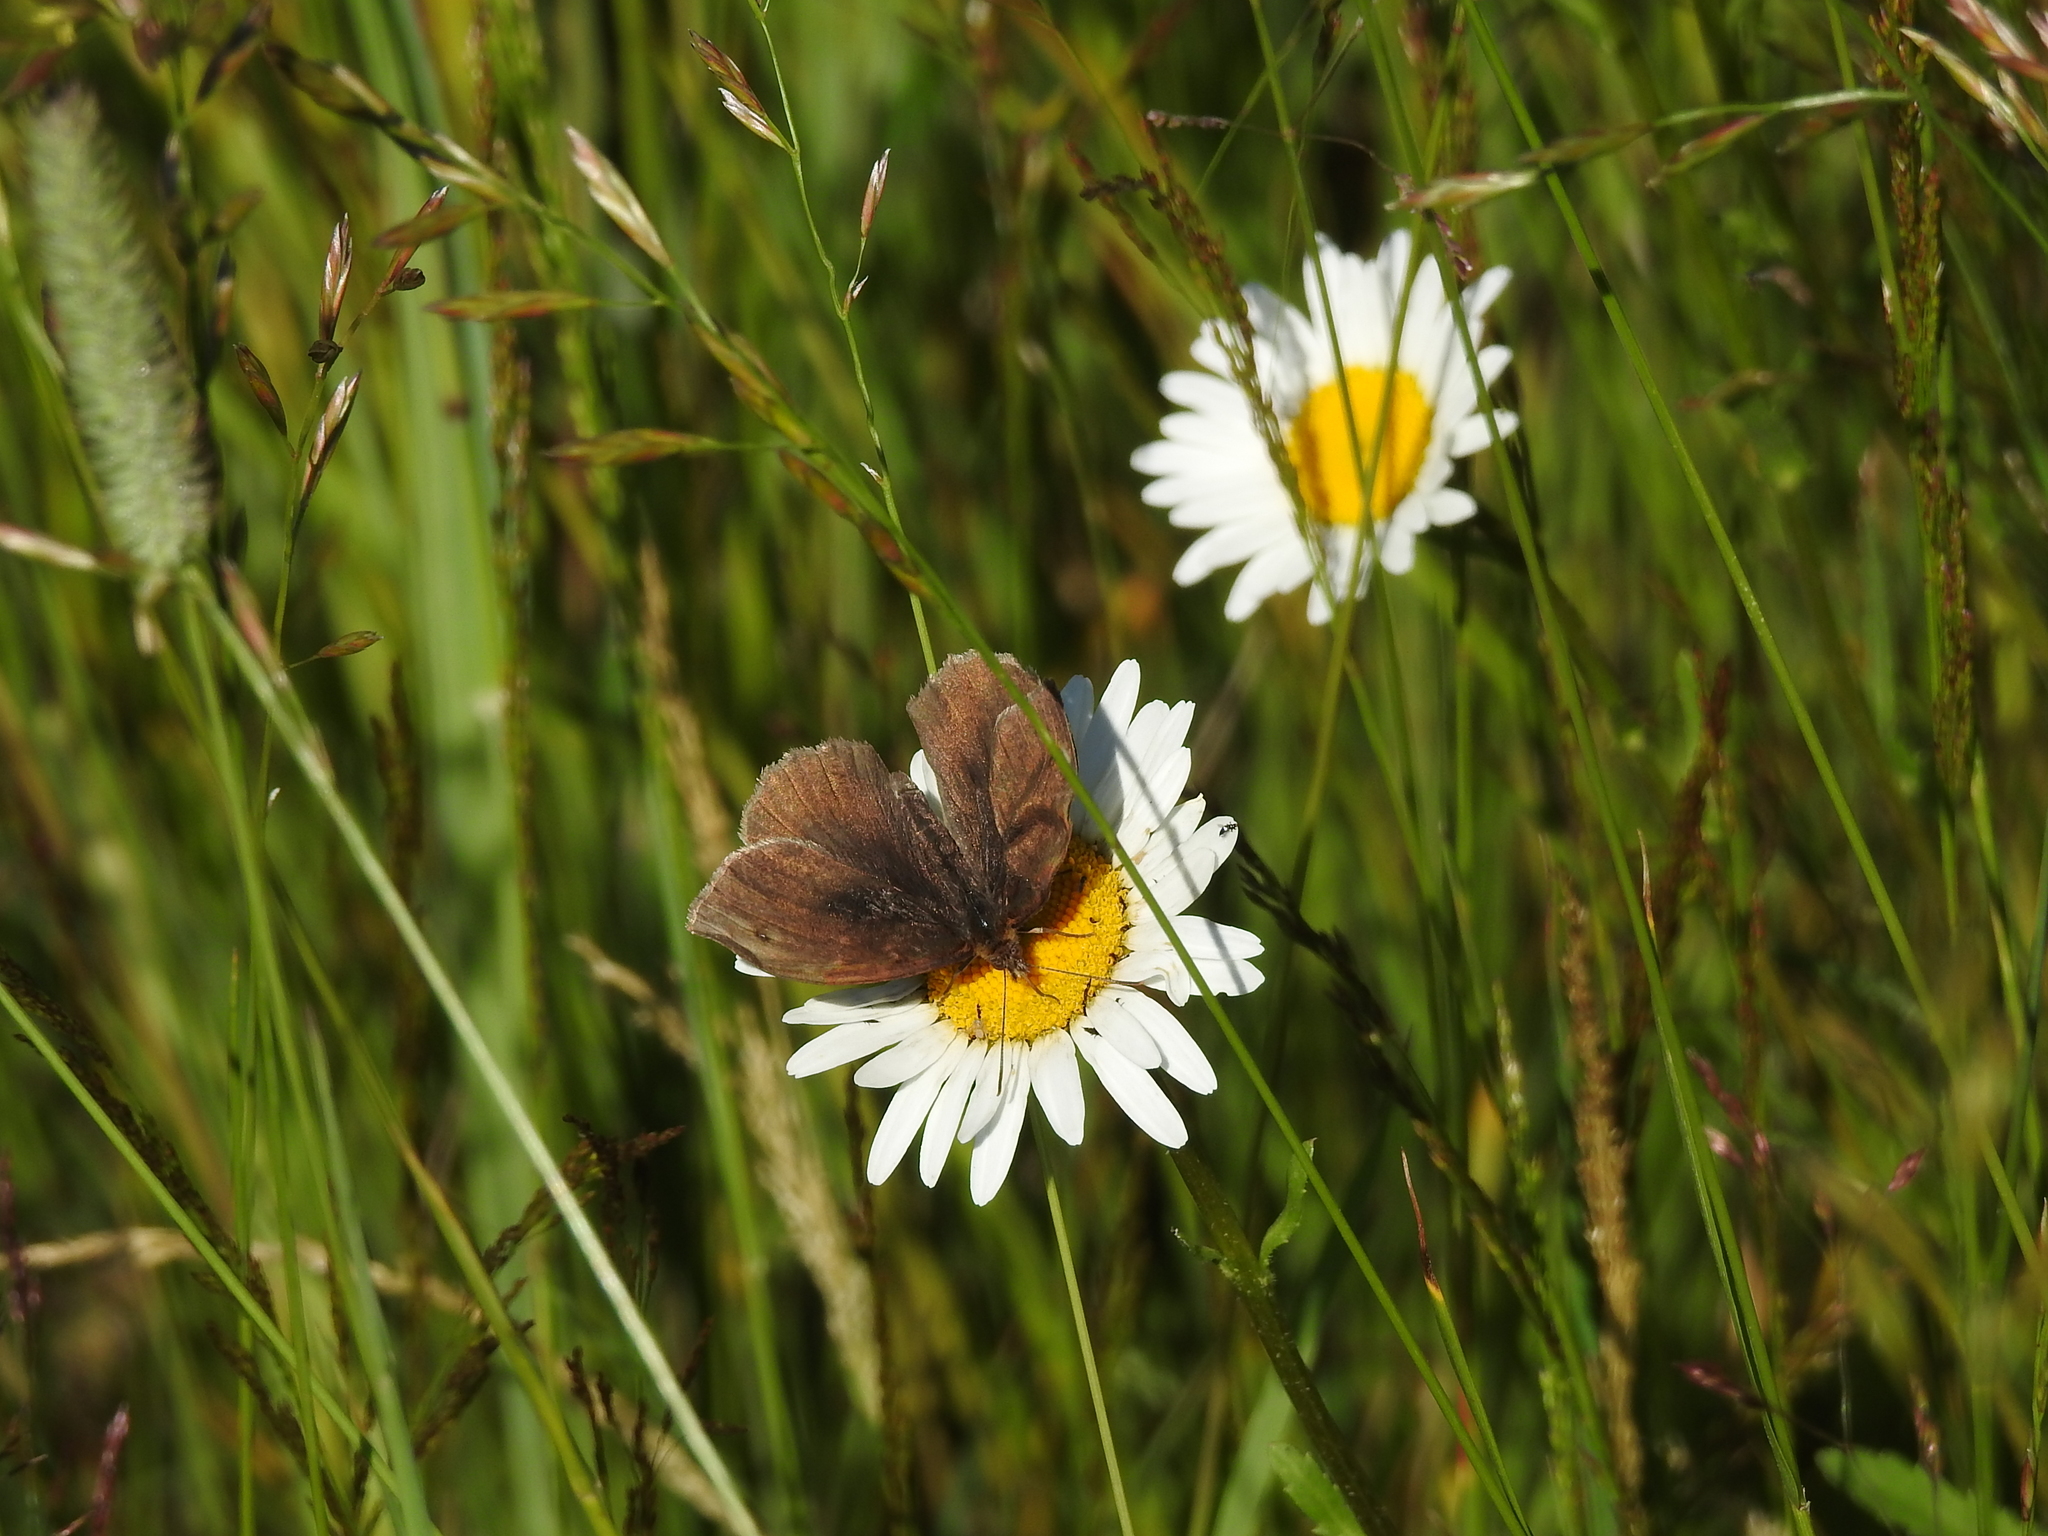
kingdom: Animalia
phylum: Arthropoda
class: Insecta
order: Lepidoptera
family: Nymphalidae
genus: Maniola
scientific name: Maniola jurtina
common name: Meadow brown
